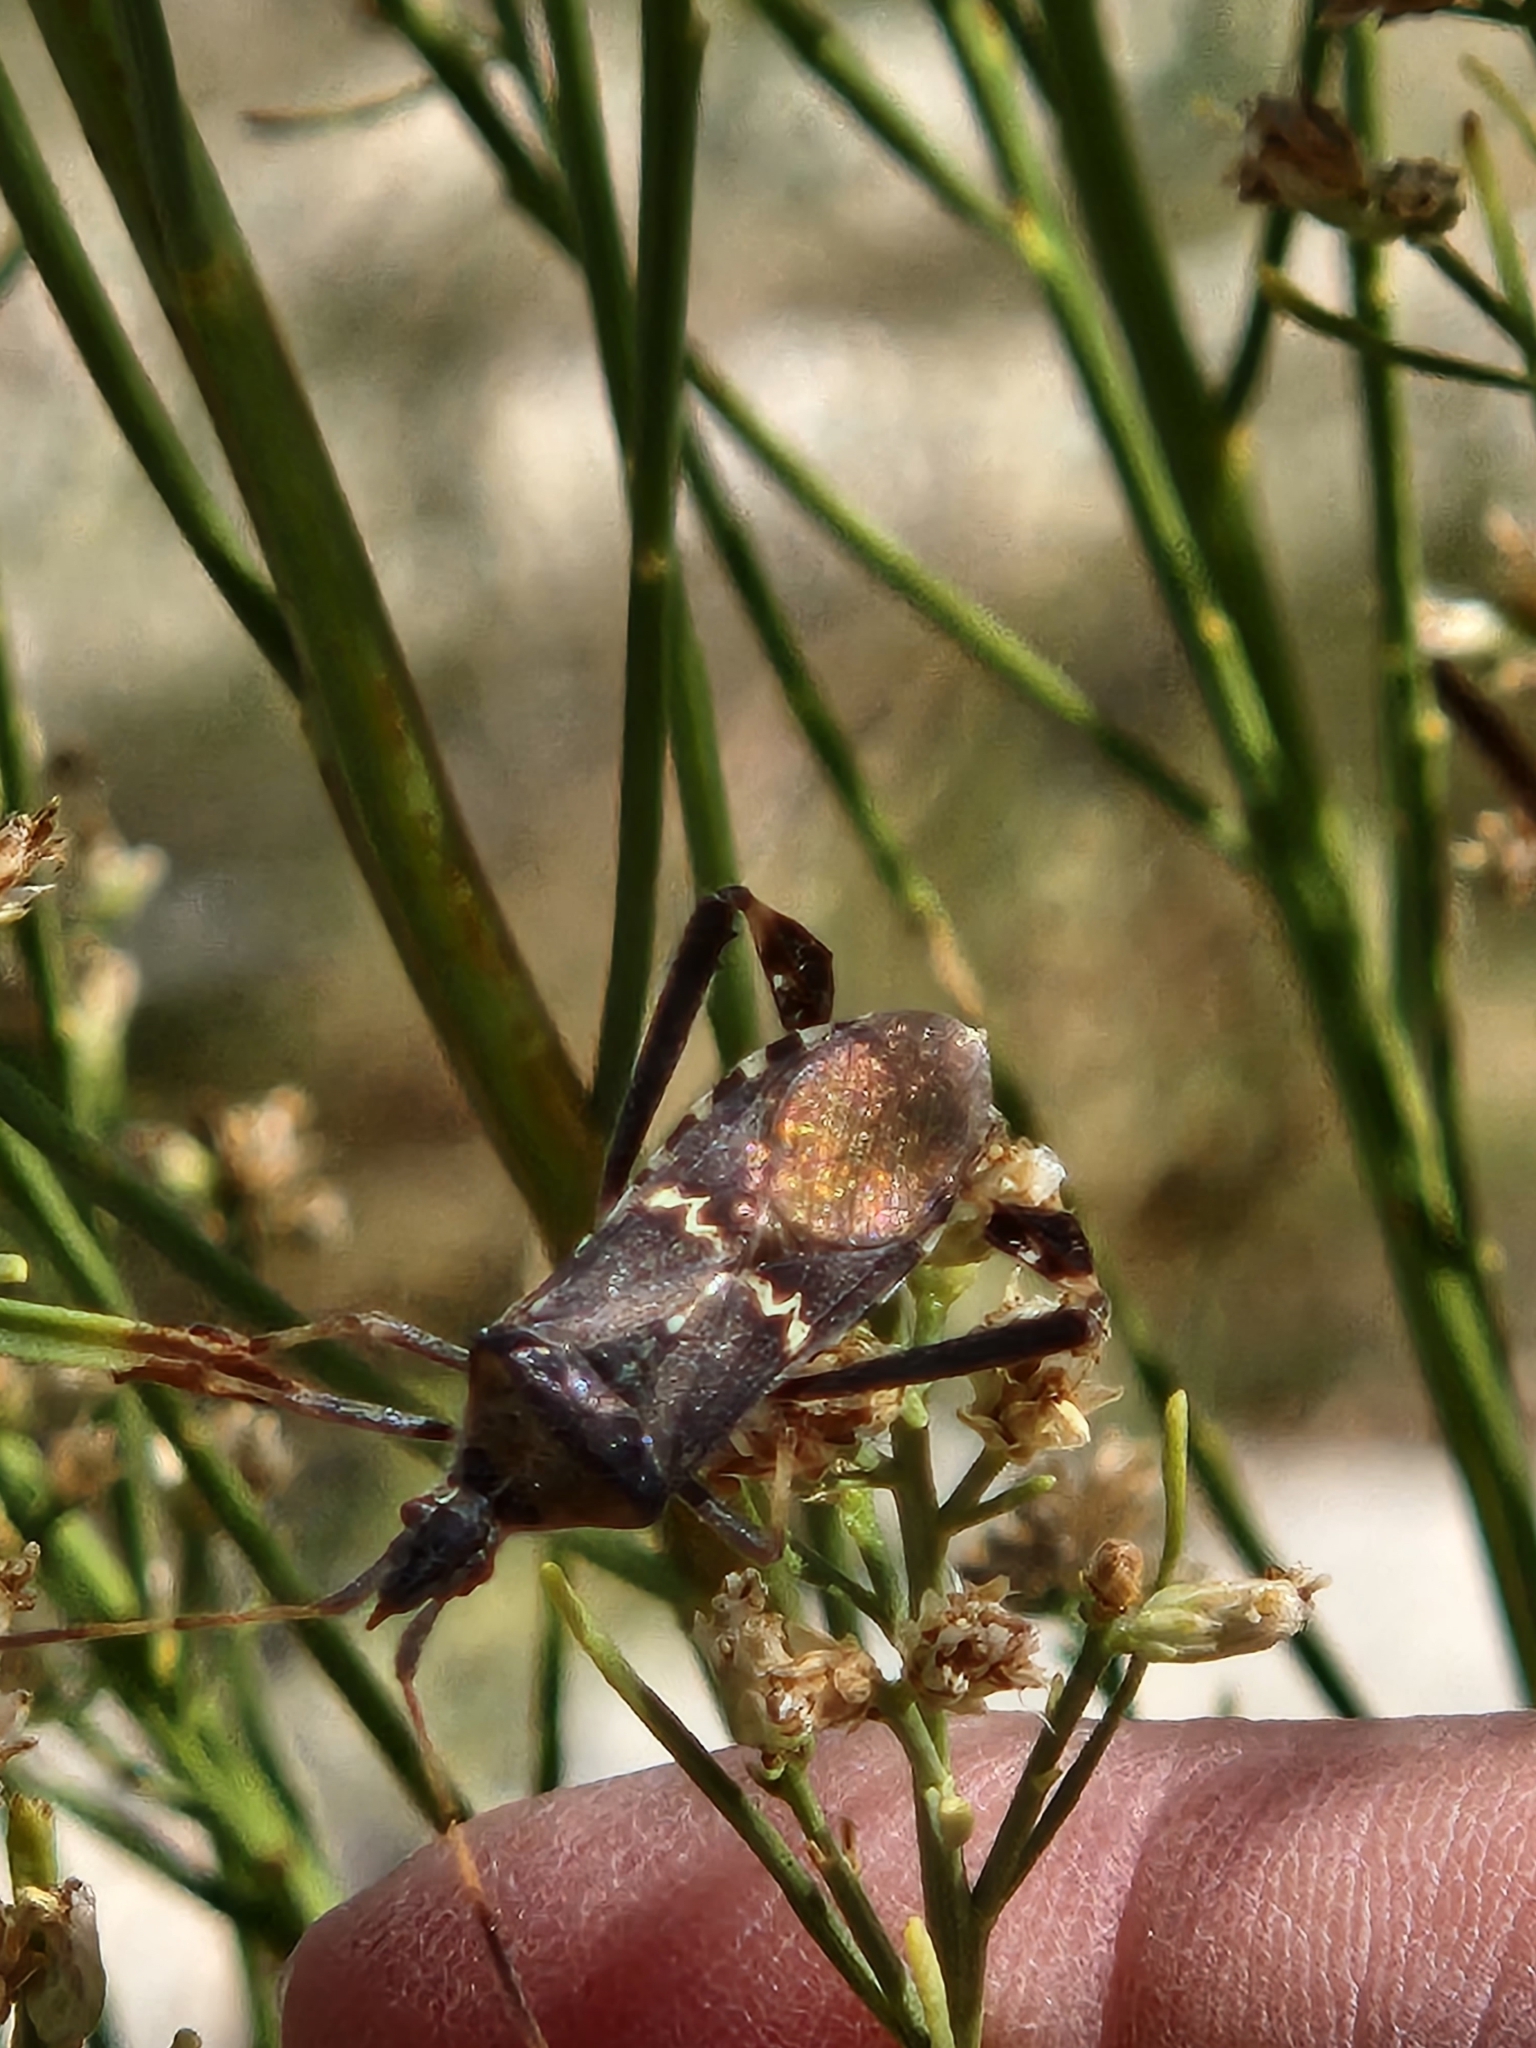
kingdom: Animalia
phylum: Arthropoda
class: Insecta
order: Hemiptera
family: Coreidae
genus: Leptoglossus
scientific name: Leptoglossus clypealis
